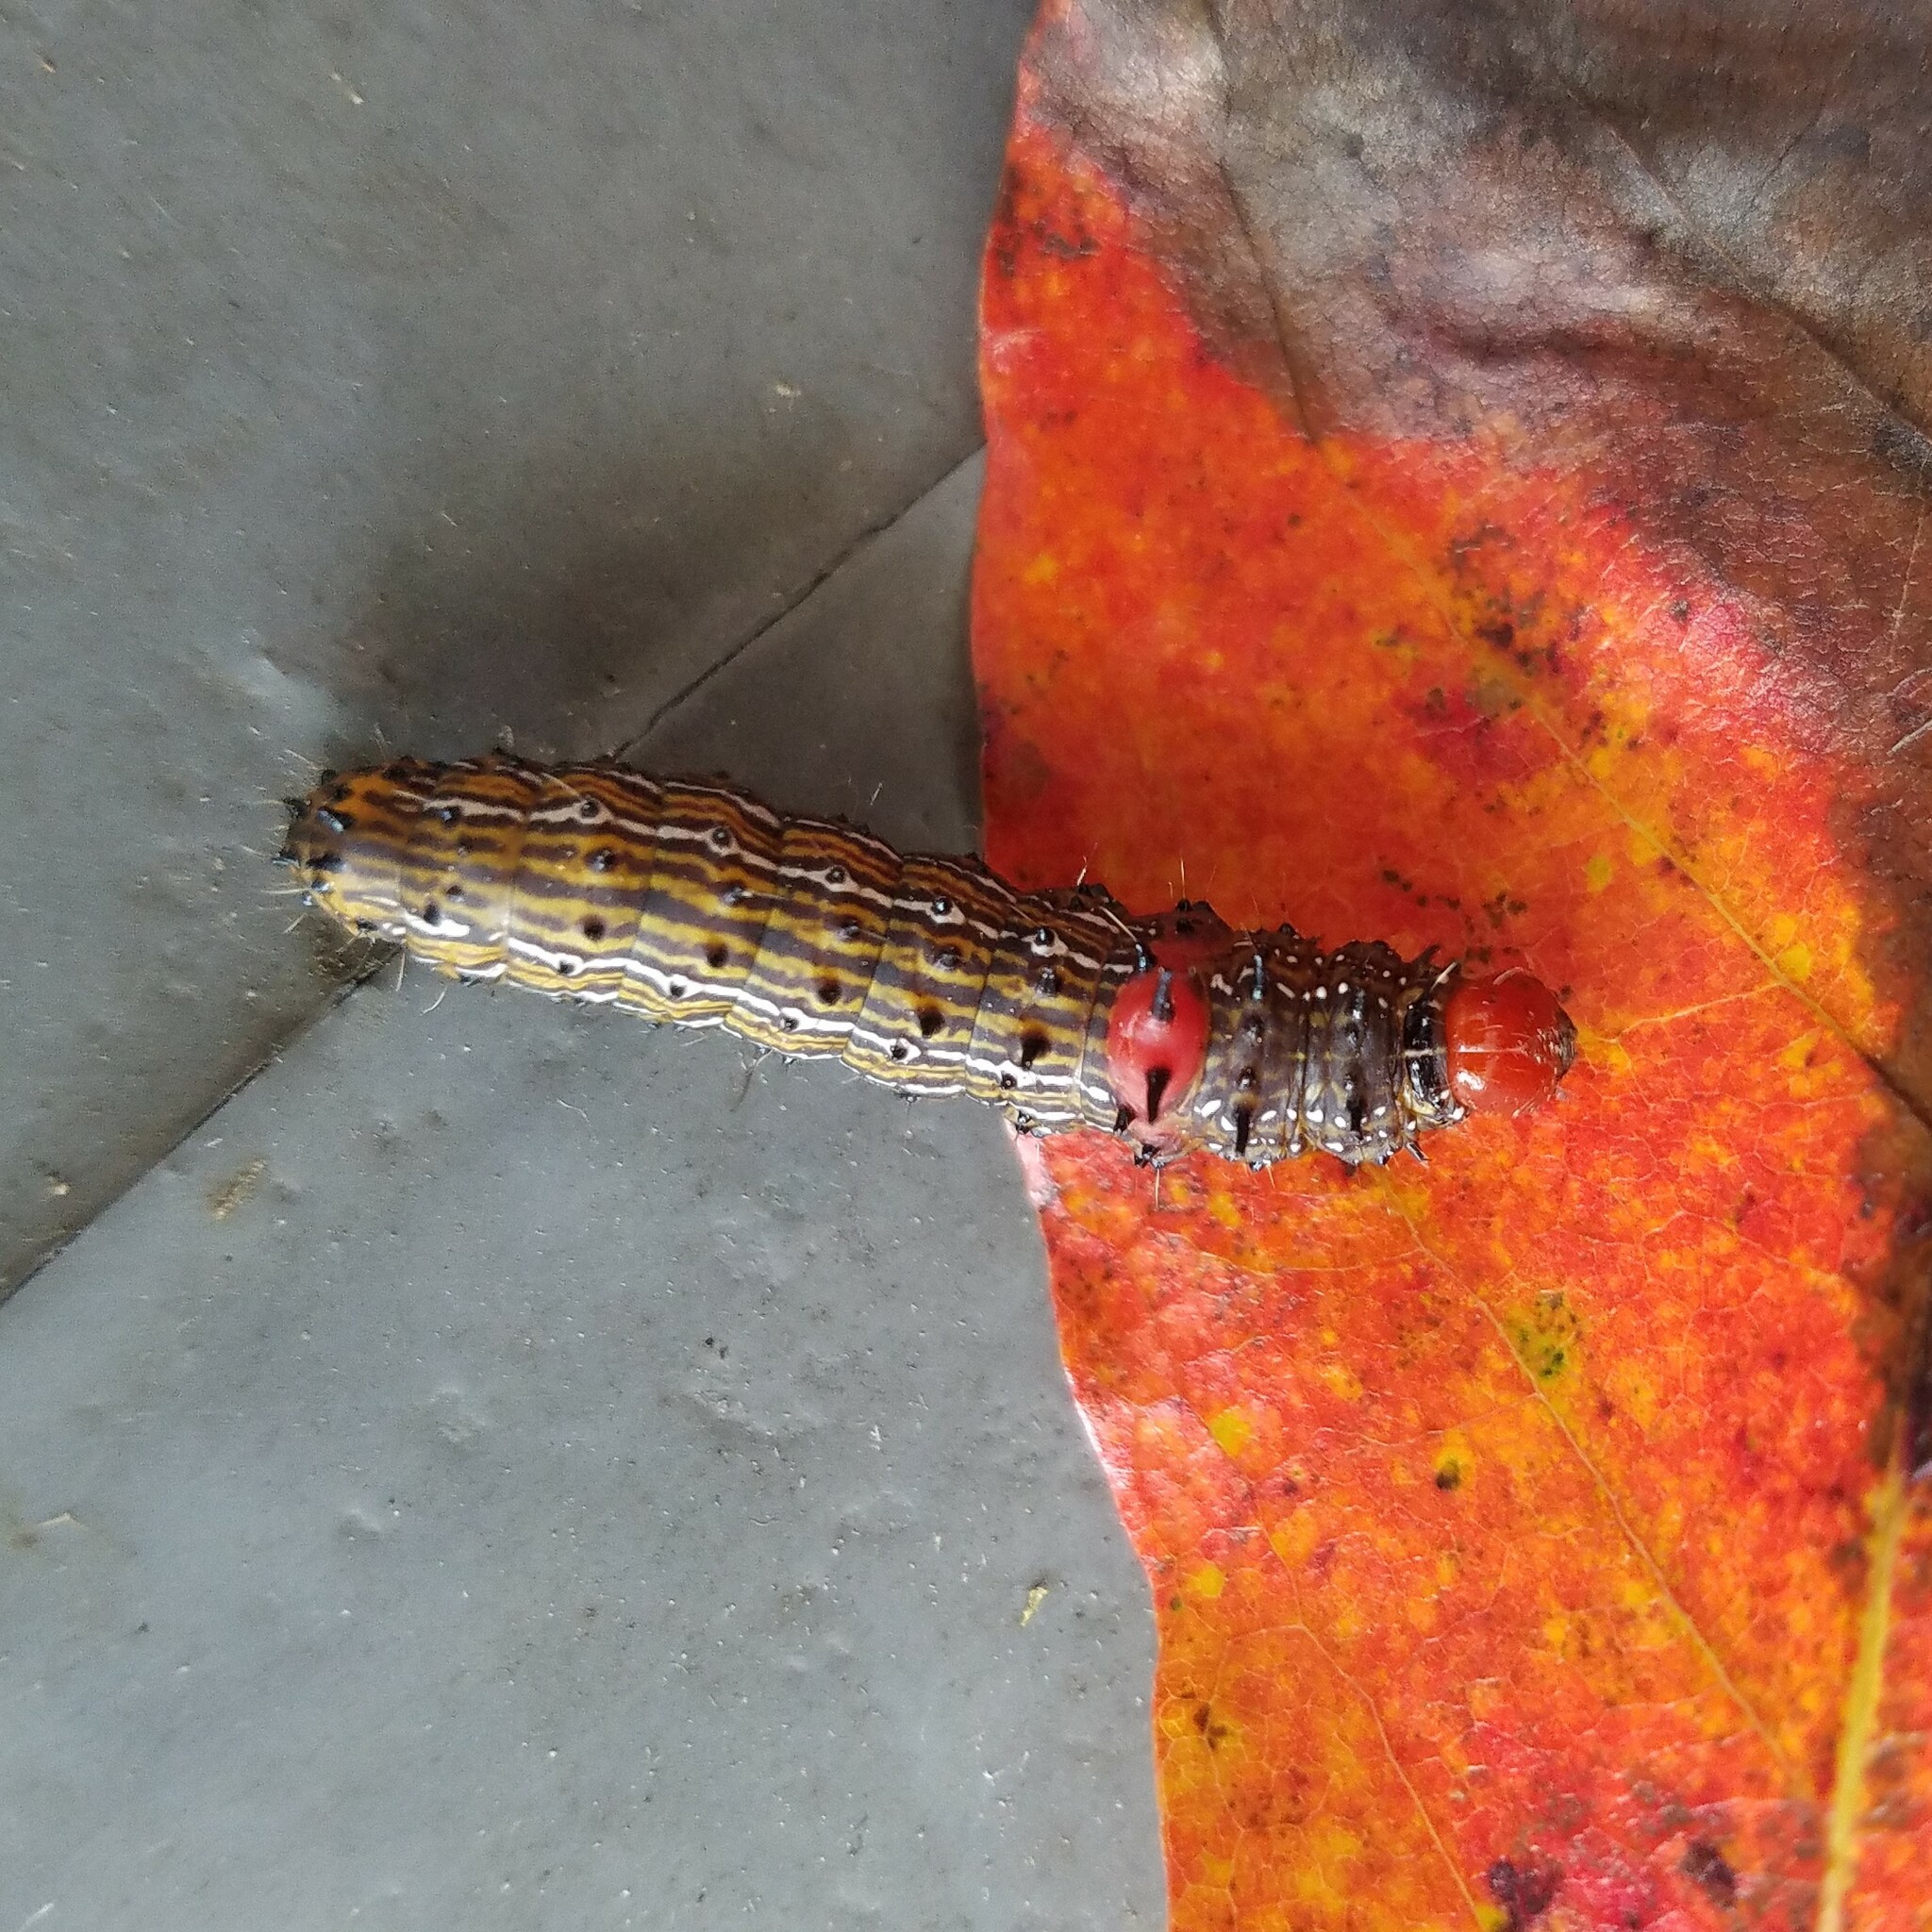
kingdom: Animalia
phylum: Arthropoda
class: Insecta
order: Lepidoptera
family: Notodontidae
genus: Schizura
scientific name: Schizura
